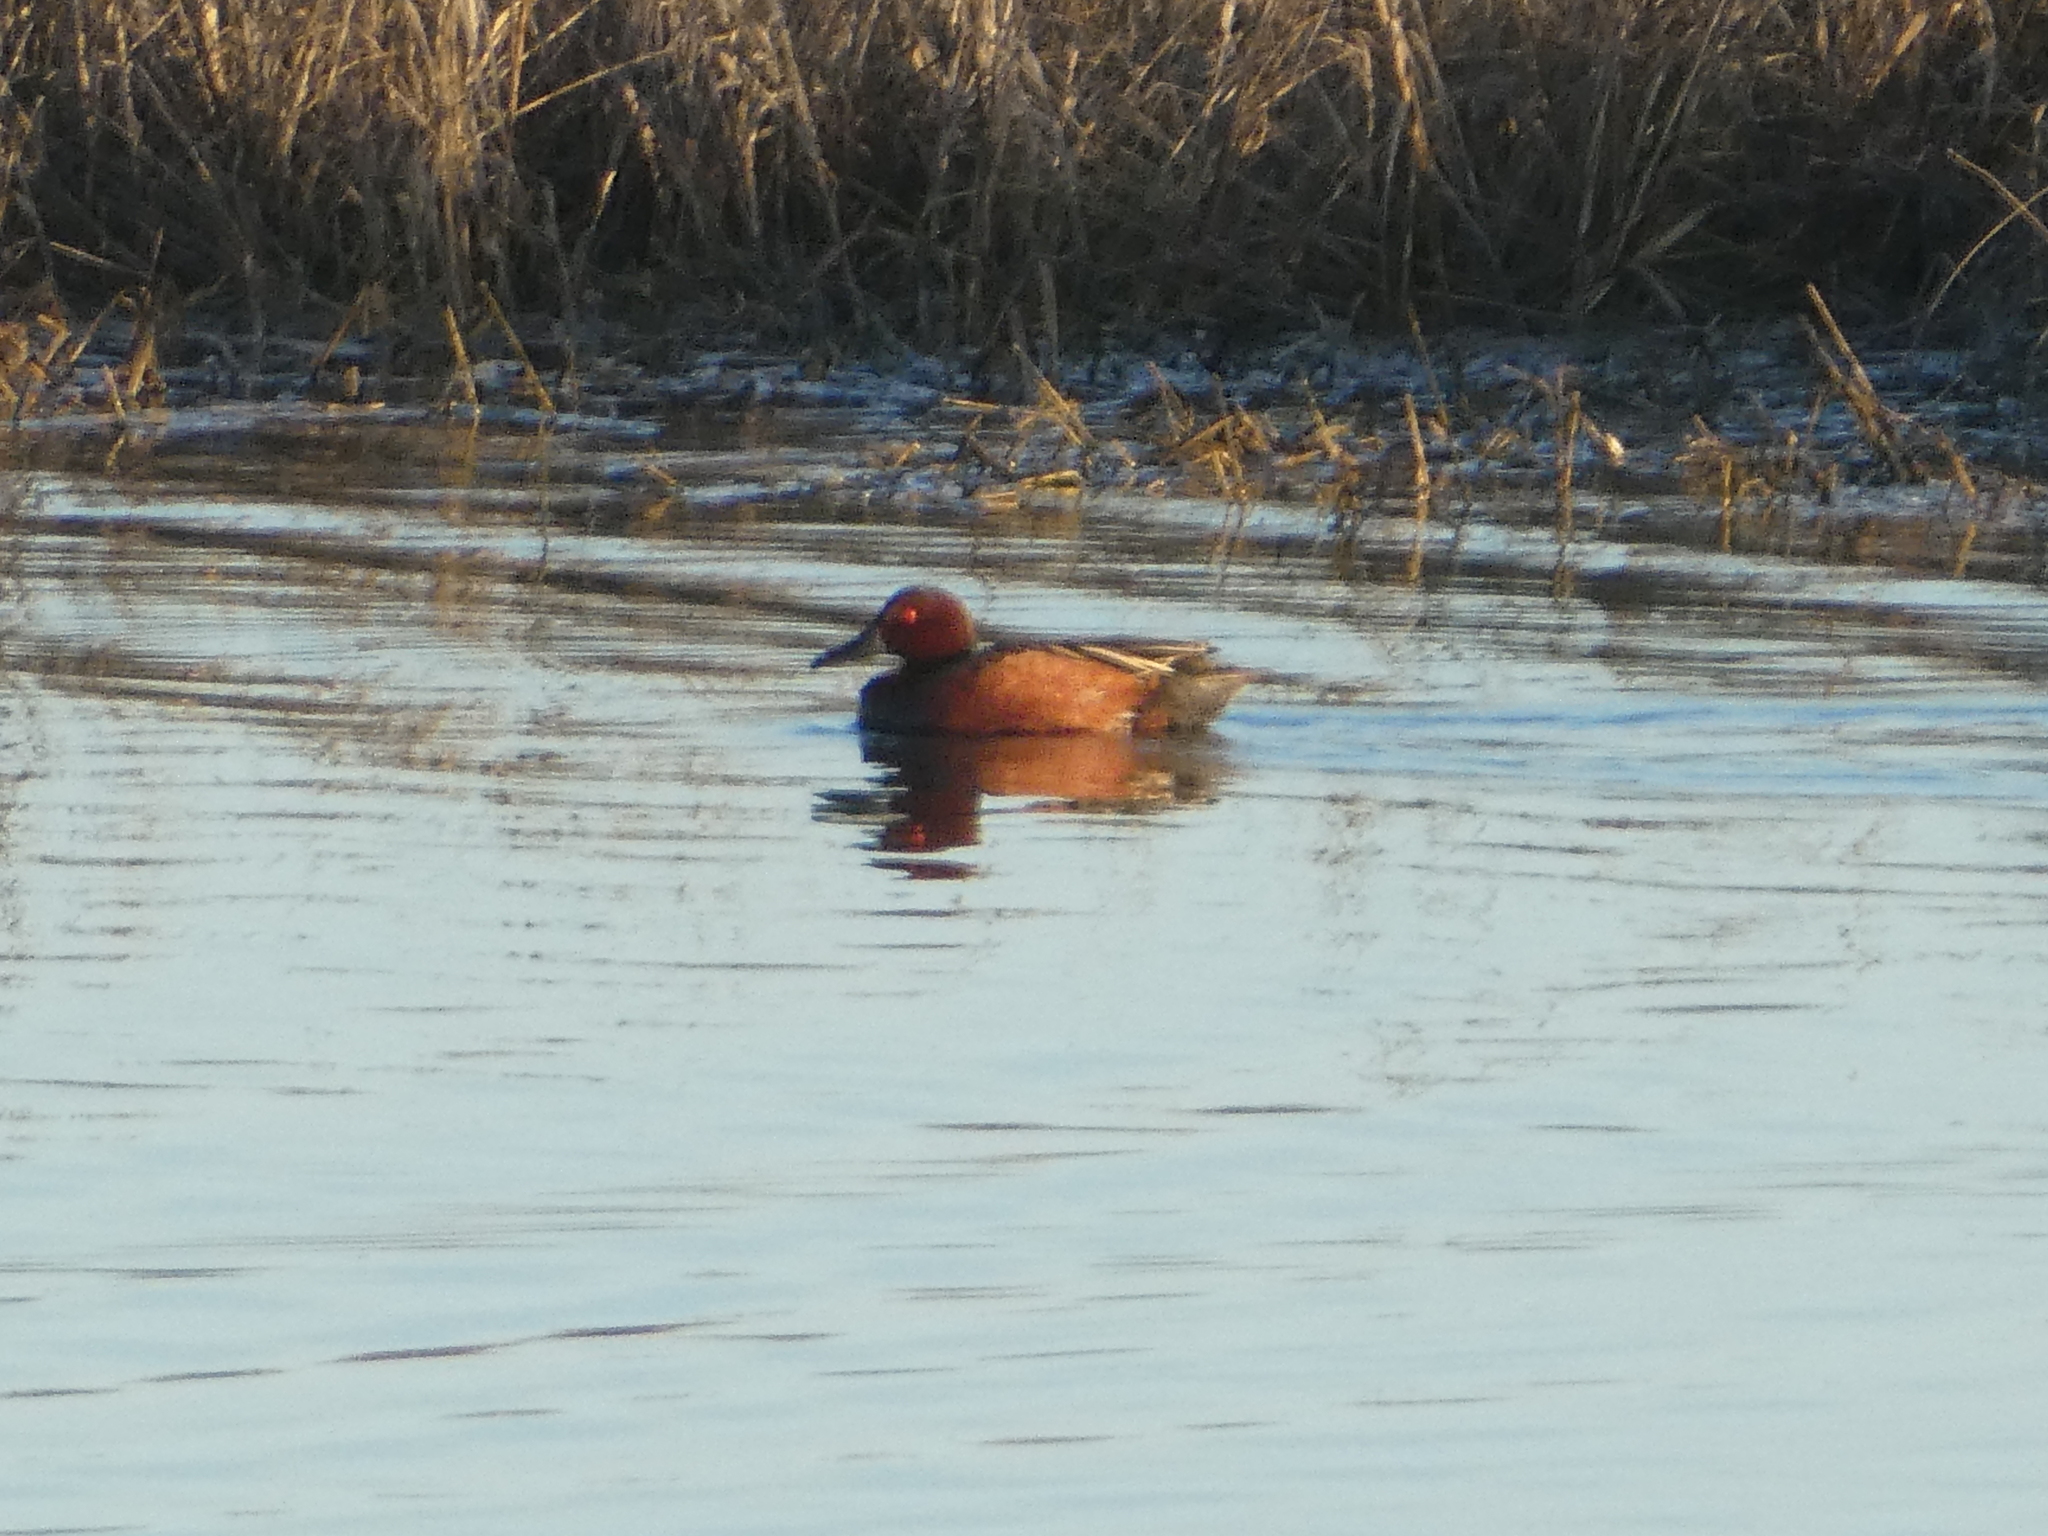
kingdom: Animalia
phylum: Chordata
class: Aves
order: Anseriformes
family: Anatidae
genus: Spatula
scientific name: Spatula cyanoptera
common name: Cinnamon teal
